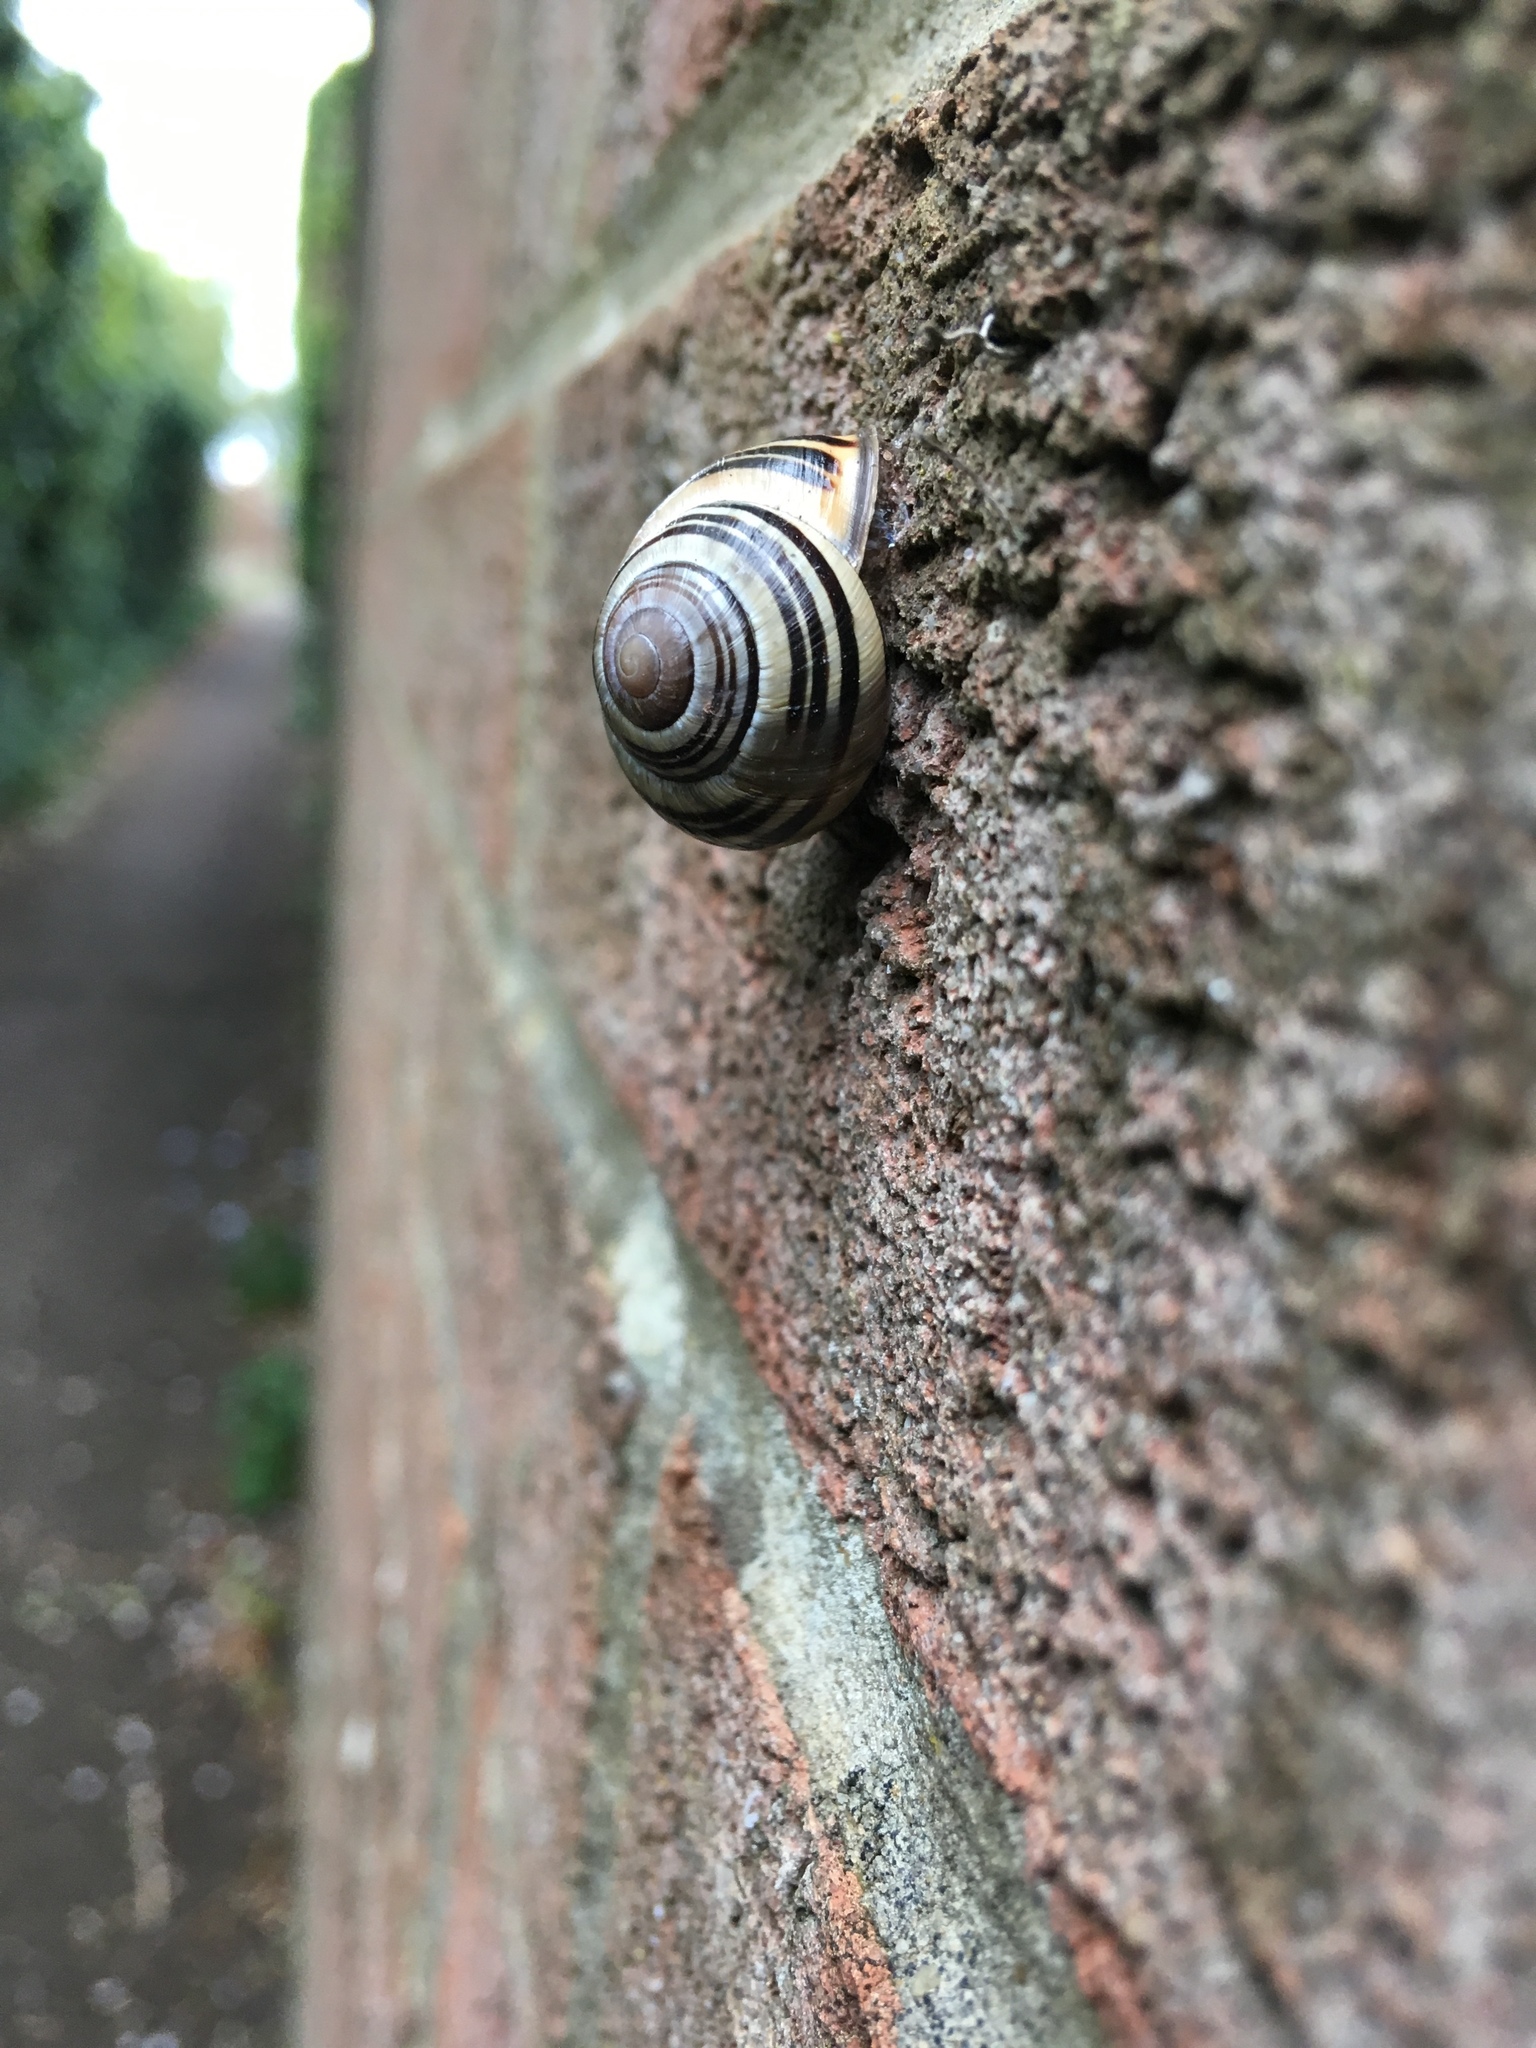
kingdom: Animalia
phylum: Mollusca
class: Gastropoda
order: Stylommatophora
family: Helicidae
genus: Cepaea
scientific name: Cepaea nemoralis
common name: Grovesnail
